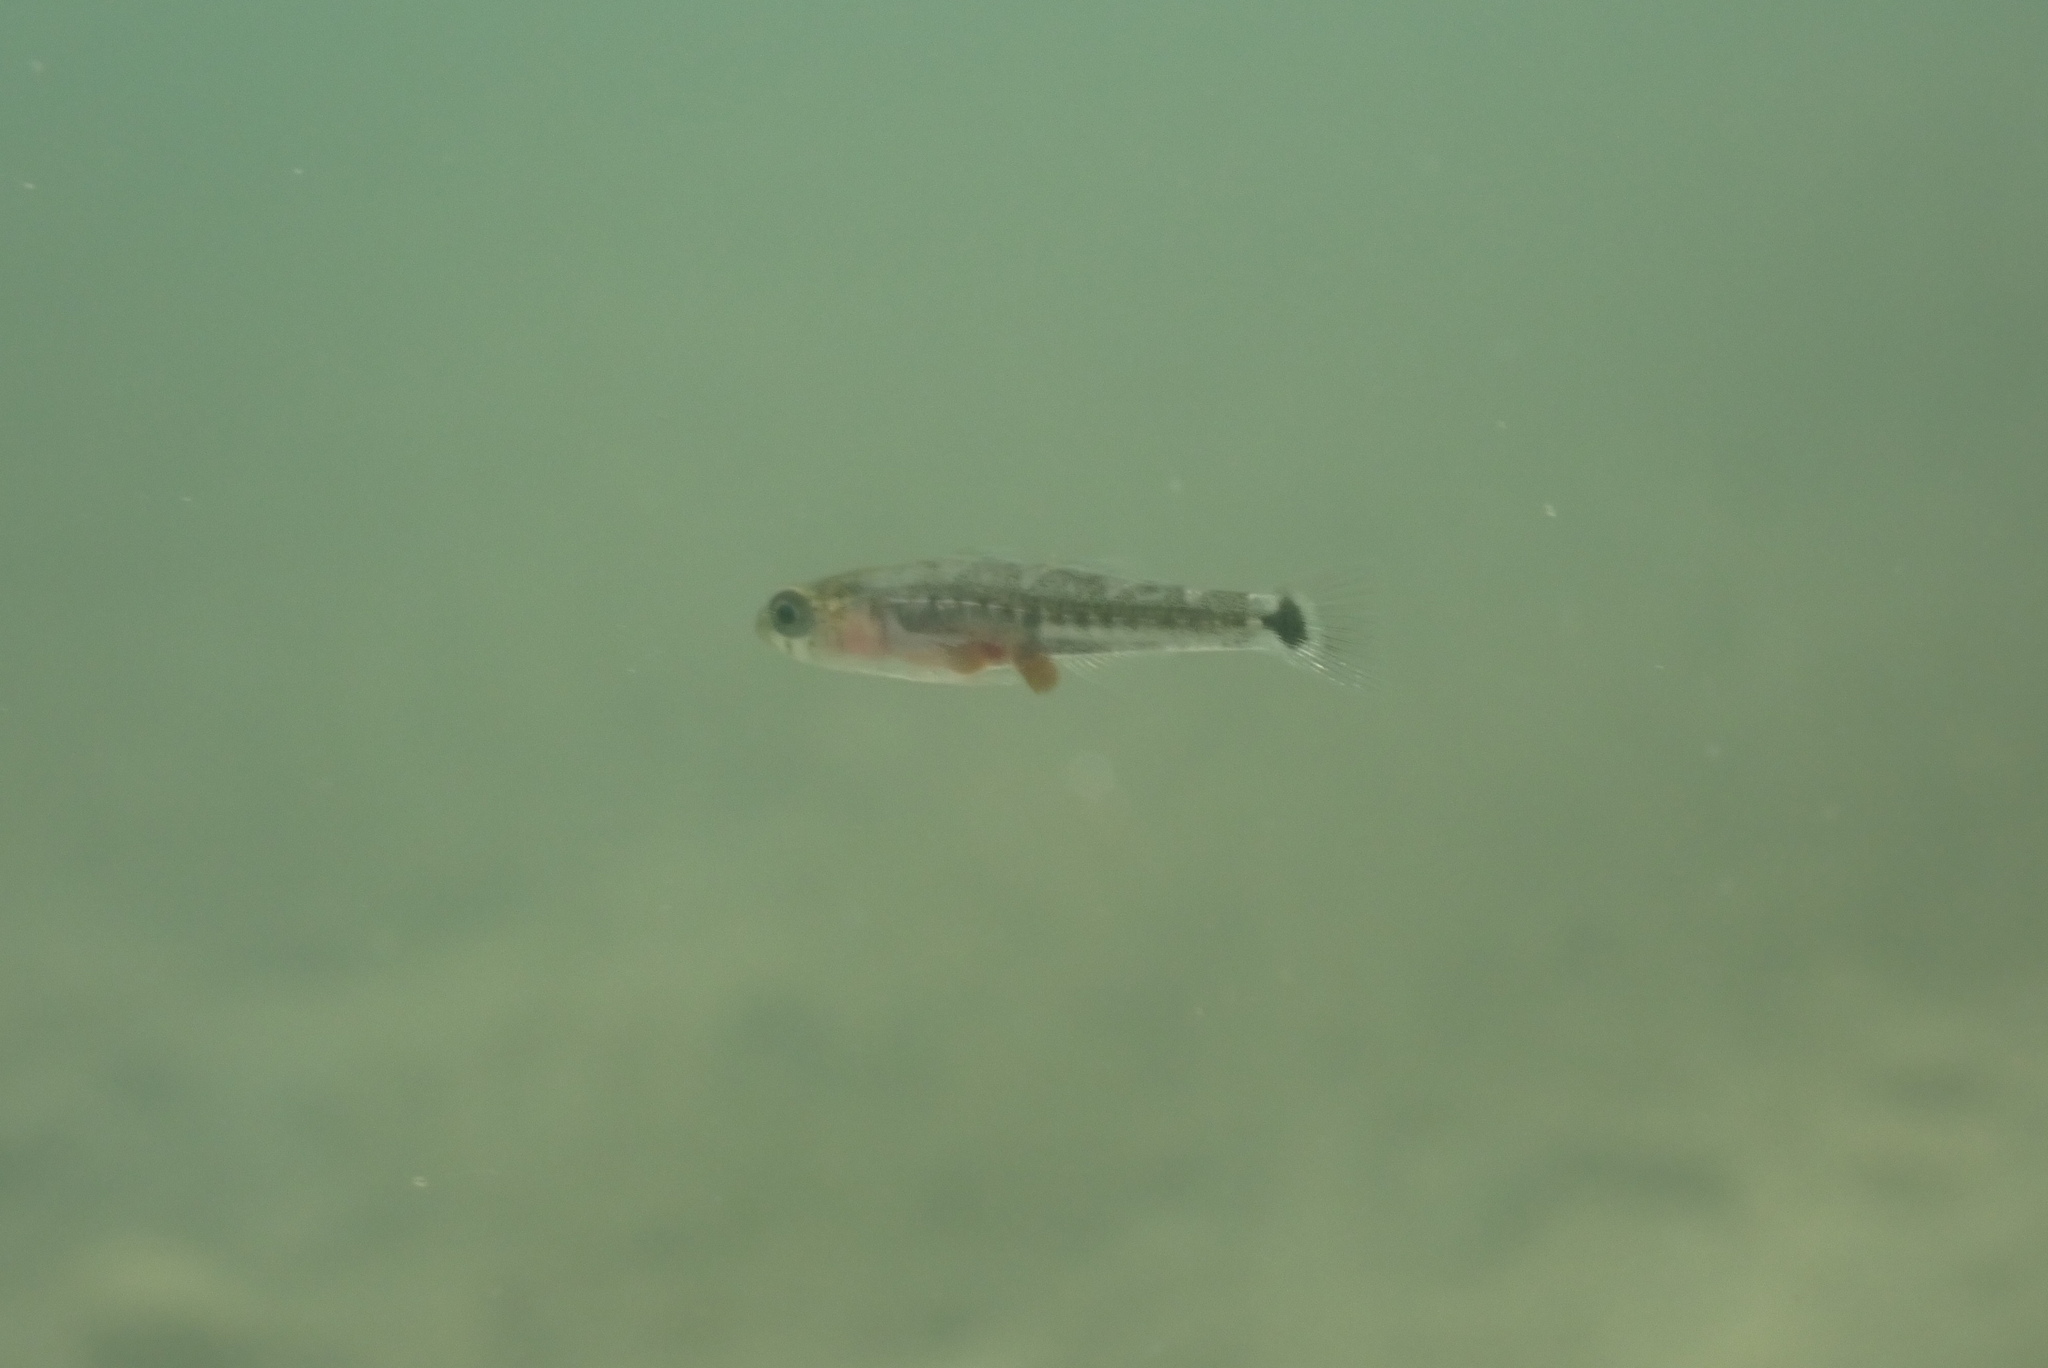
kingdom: Animalia
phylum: Chordata
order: Perciformes
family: Gobiidae
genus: Gobiusculus
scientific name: Gobiusculus flavescens
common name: Two-spotted goby
